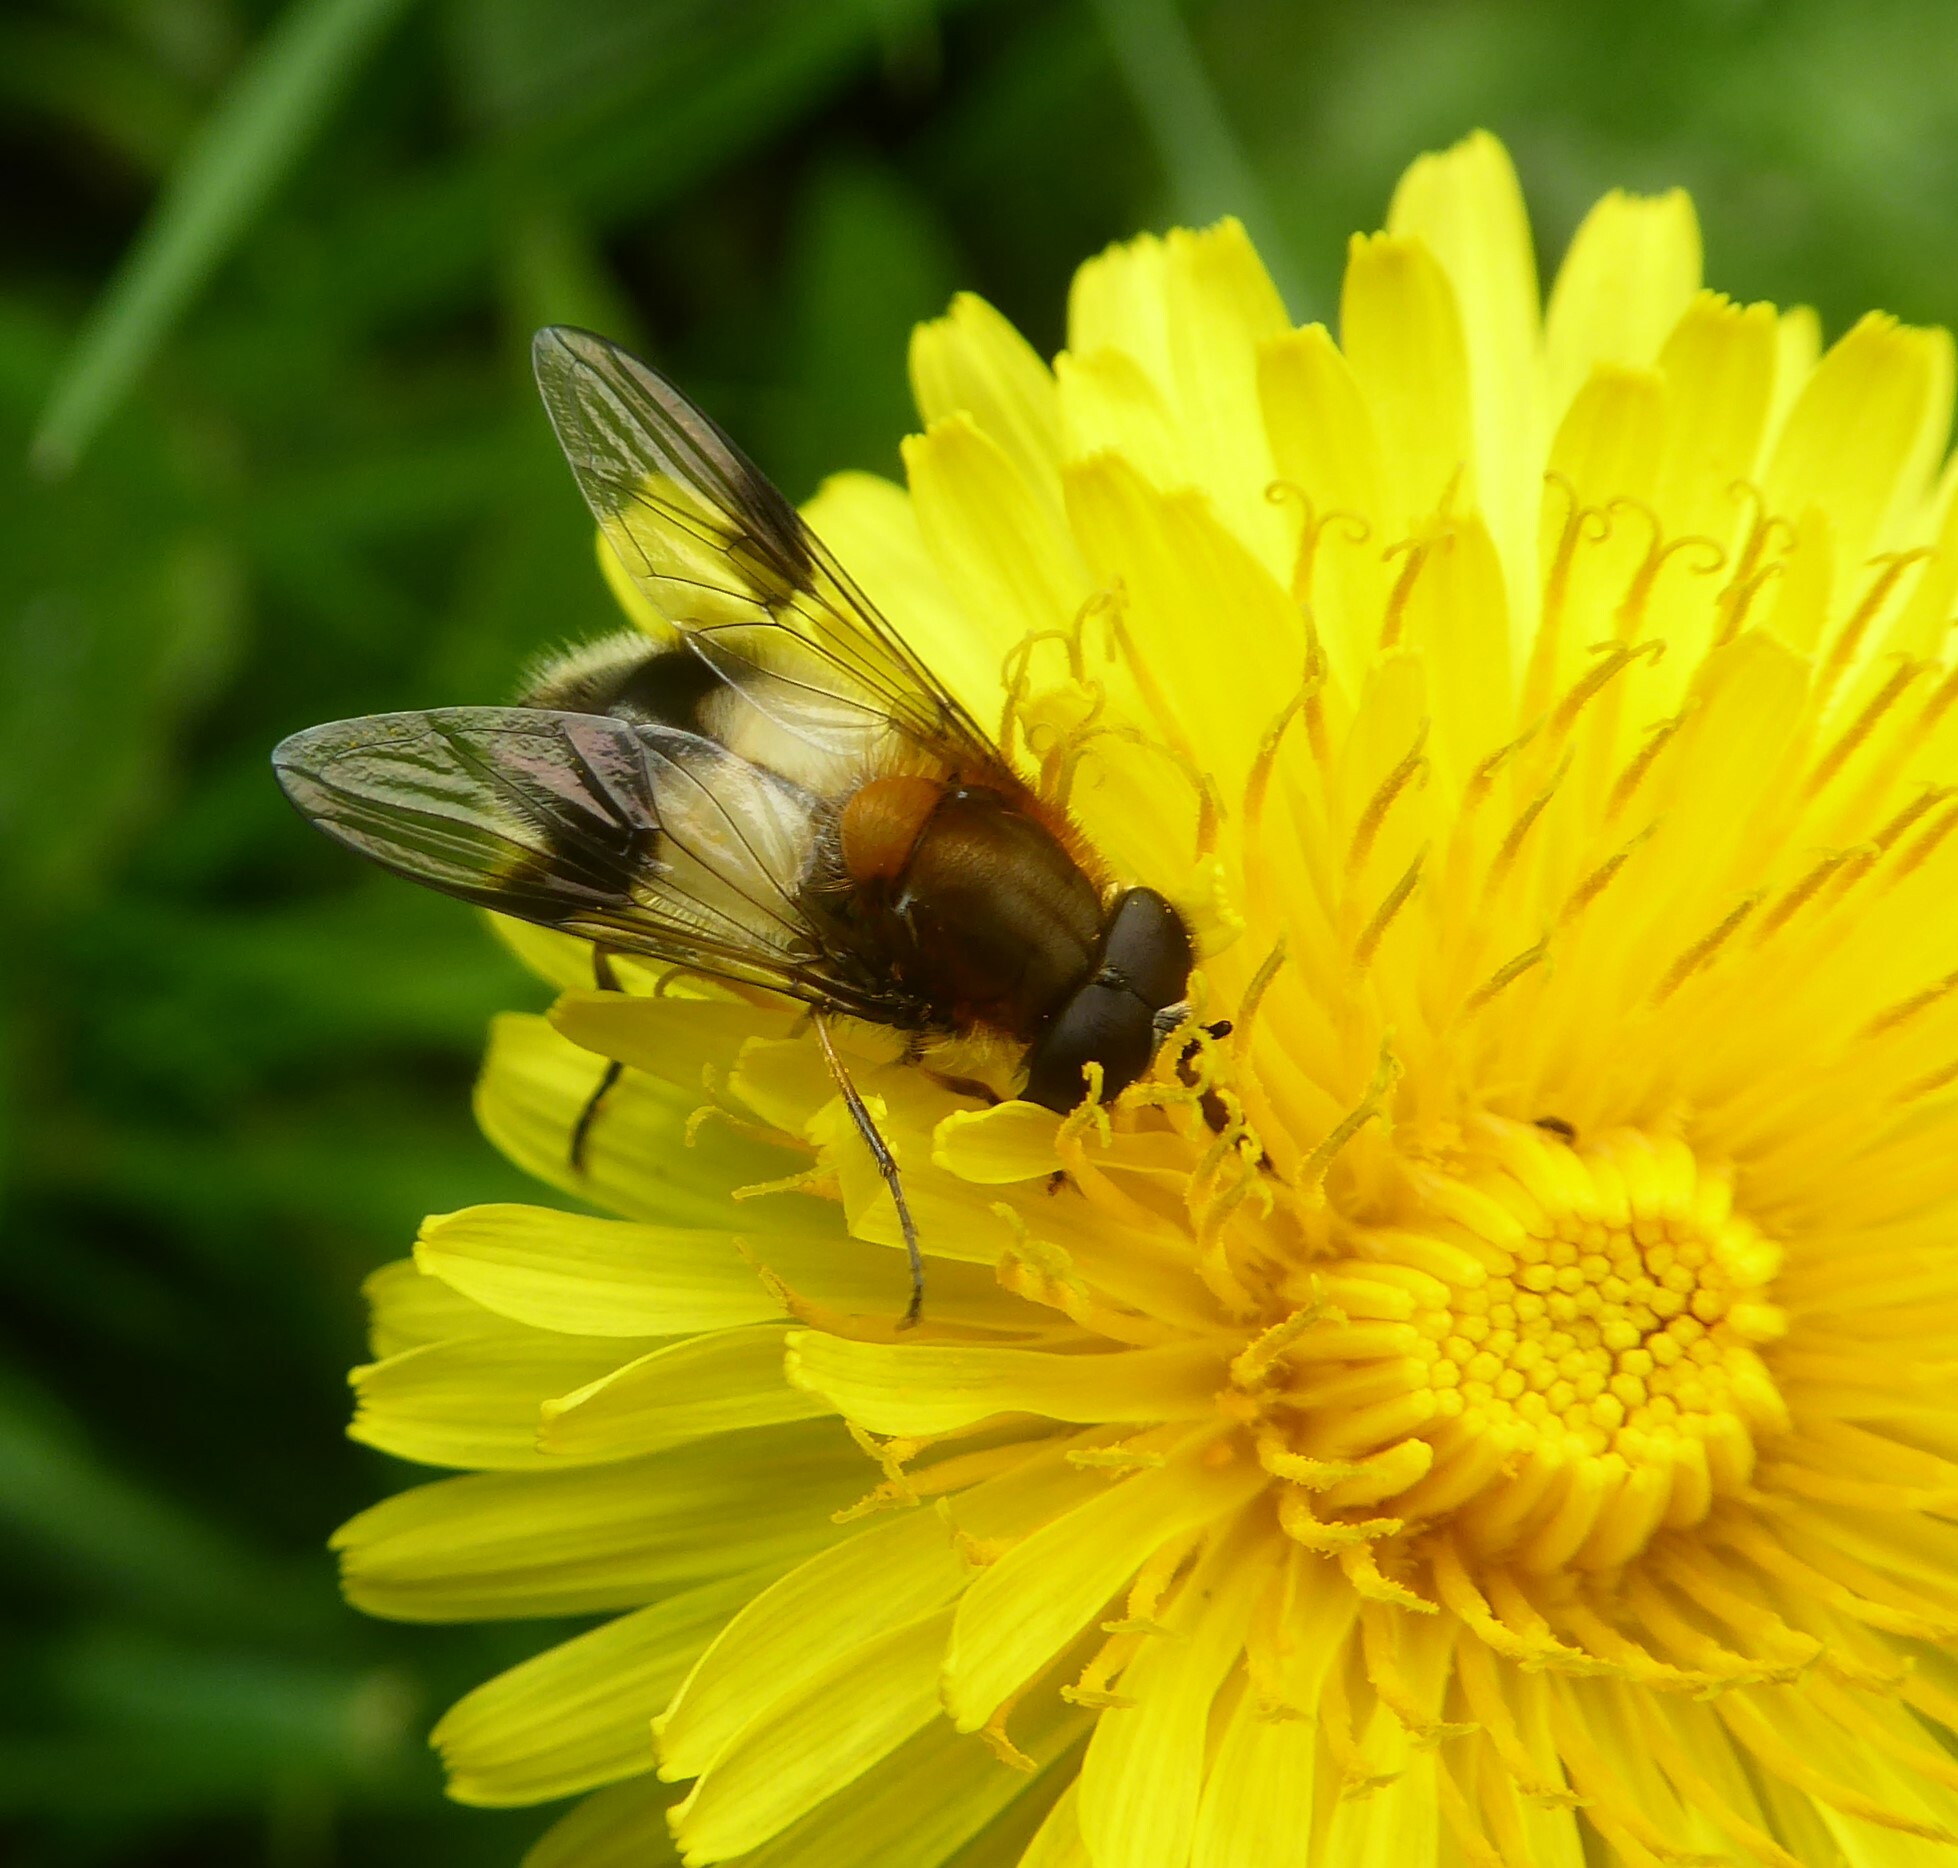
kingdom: Animalia
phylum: Arthropoda
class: Insecta
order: Diptera
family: Syrphidae
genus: Leucozona
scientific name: Leucozona lucorum
